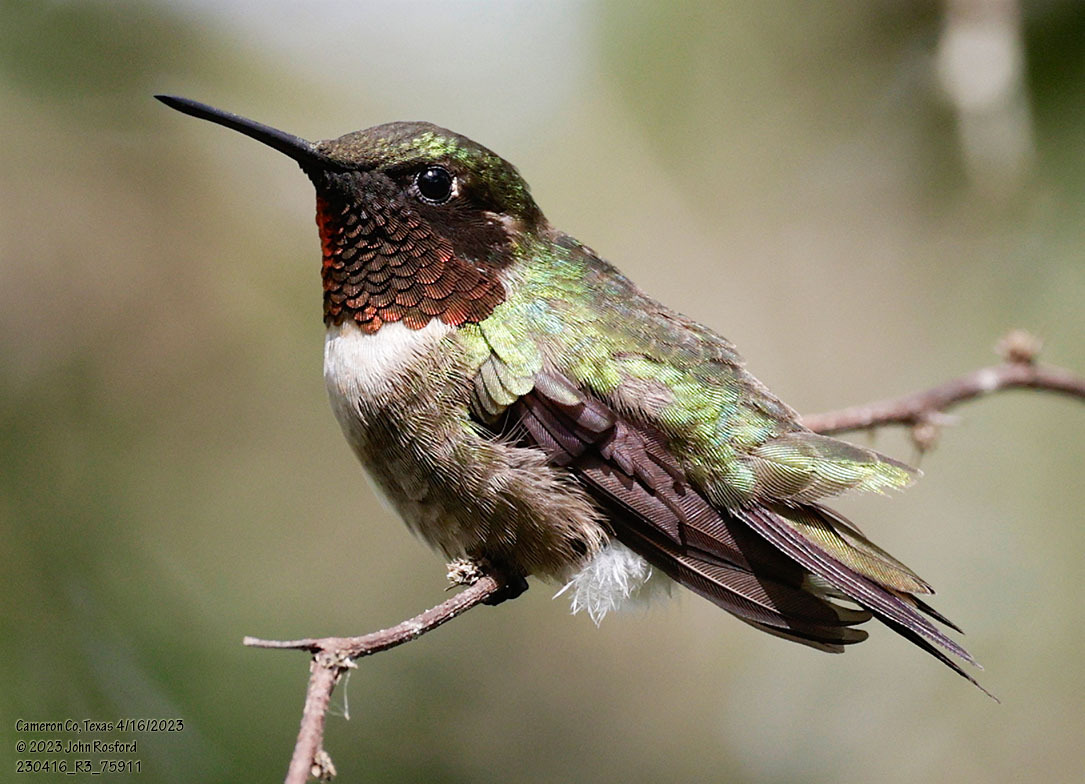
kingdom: Animalia
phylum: Chordata
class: Aves
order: Apodiformes
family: Trochilidae
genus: Archilochus
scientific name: Archilochus colubris
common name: Ruby-throated hummingbird
